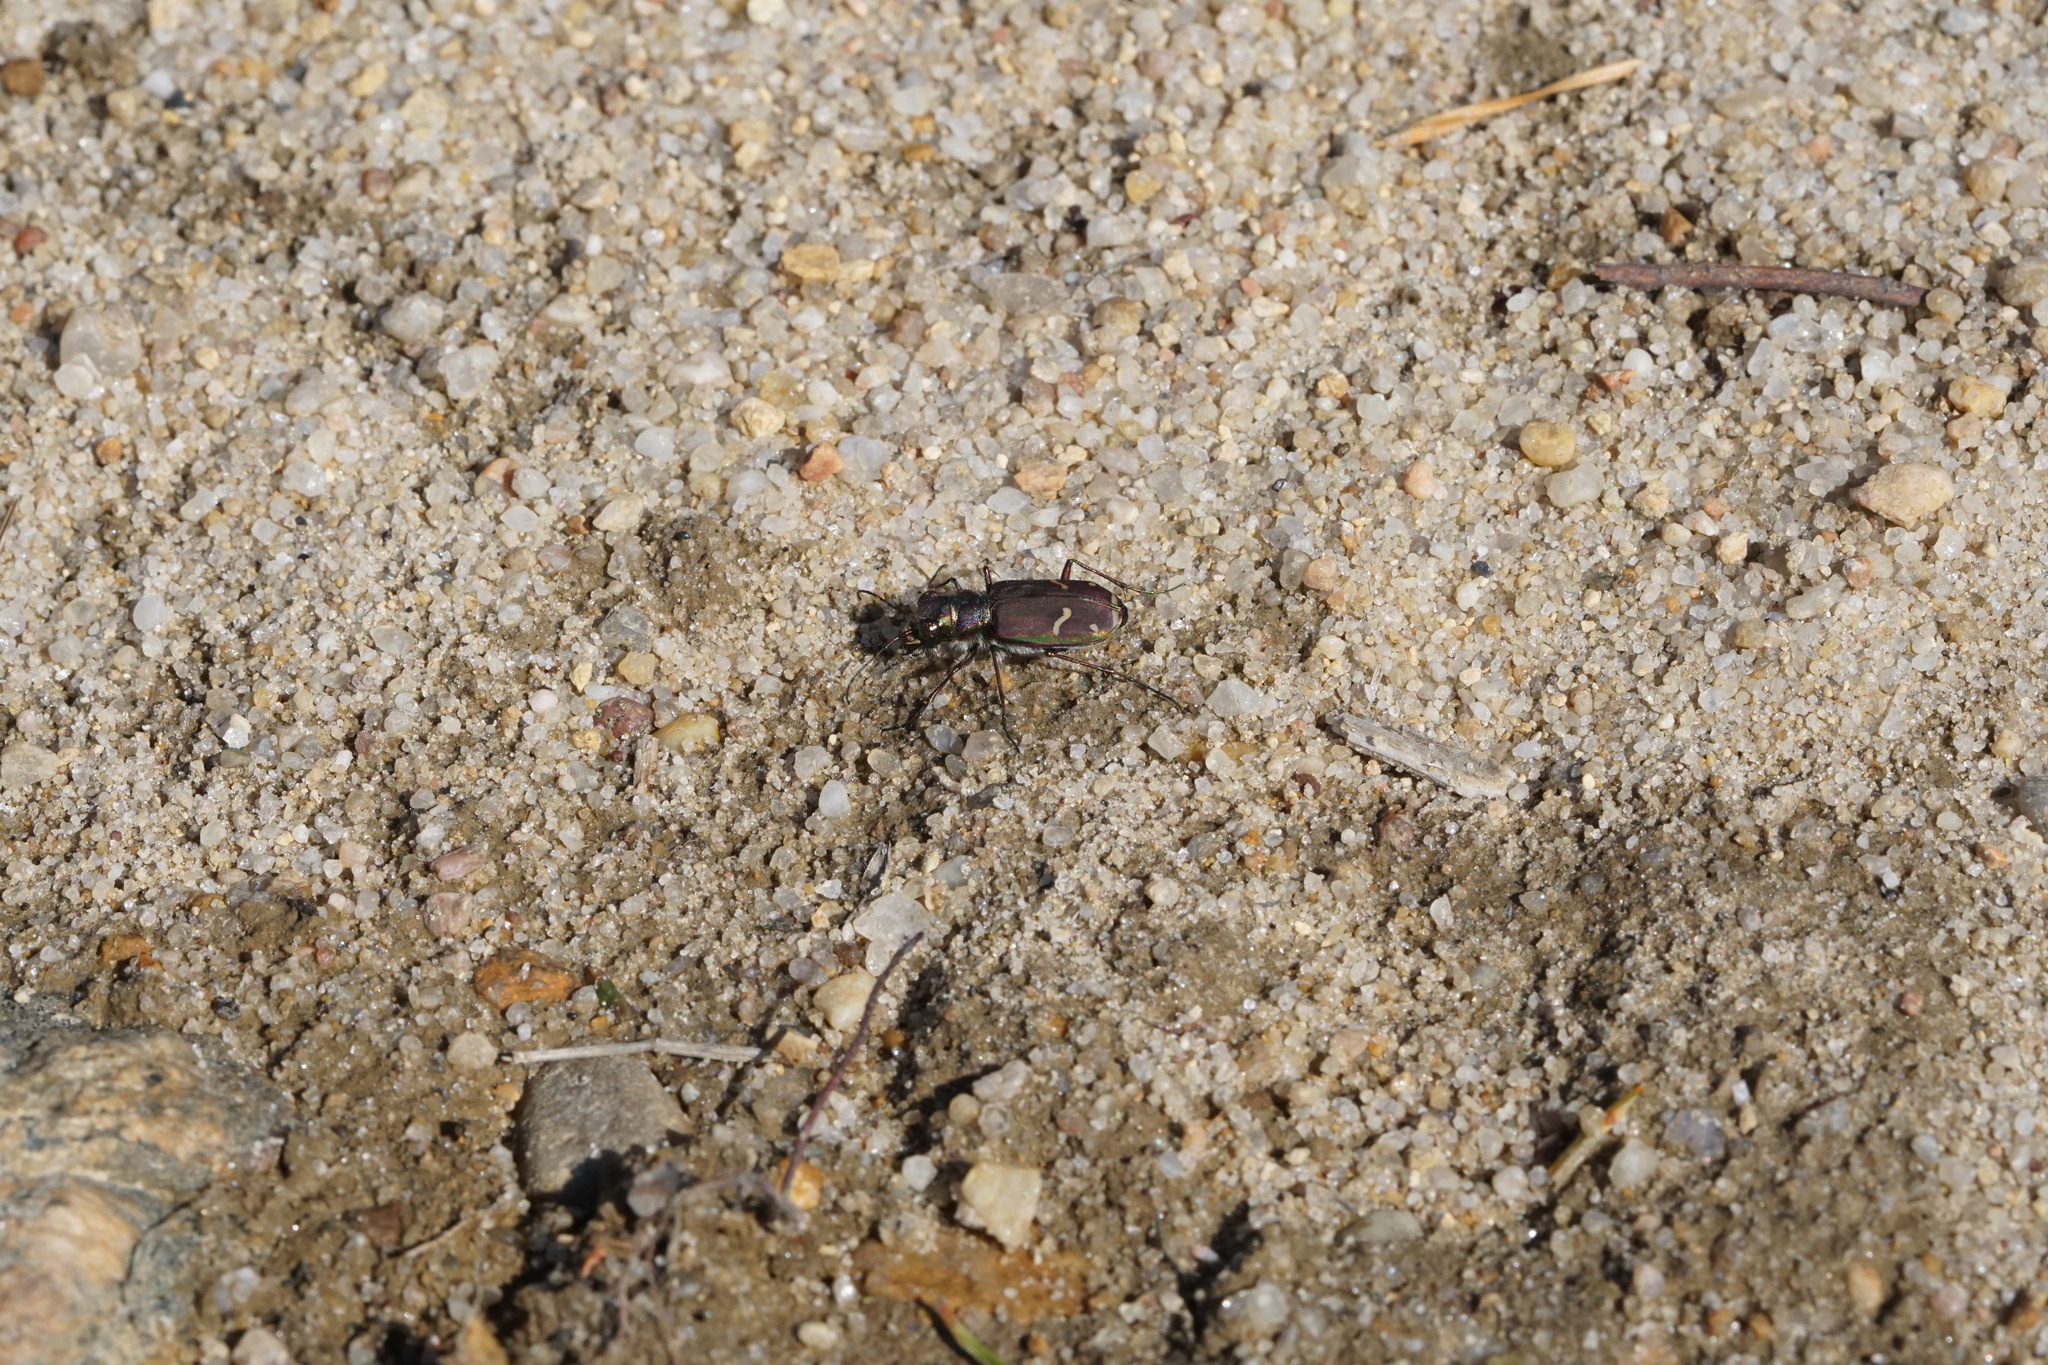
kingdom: Animalia
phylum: Arthropoda
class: Insecta
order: Coleoptera
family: Carabidae
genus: Cicindela
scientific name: Cicindela purpurea
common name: Cow path tiger beetle
